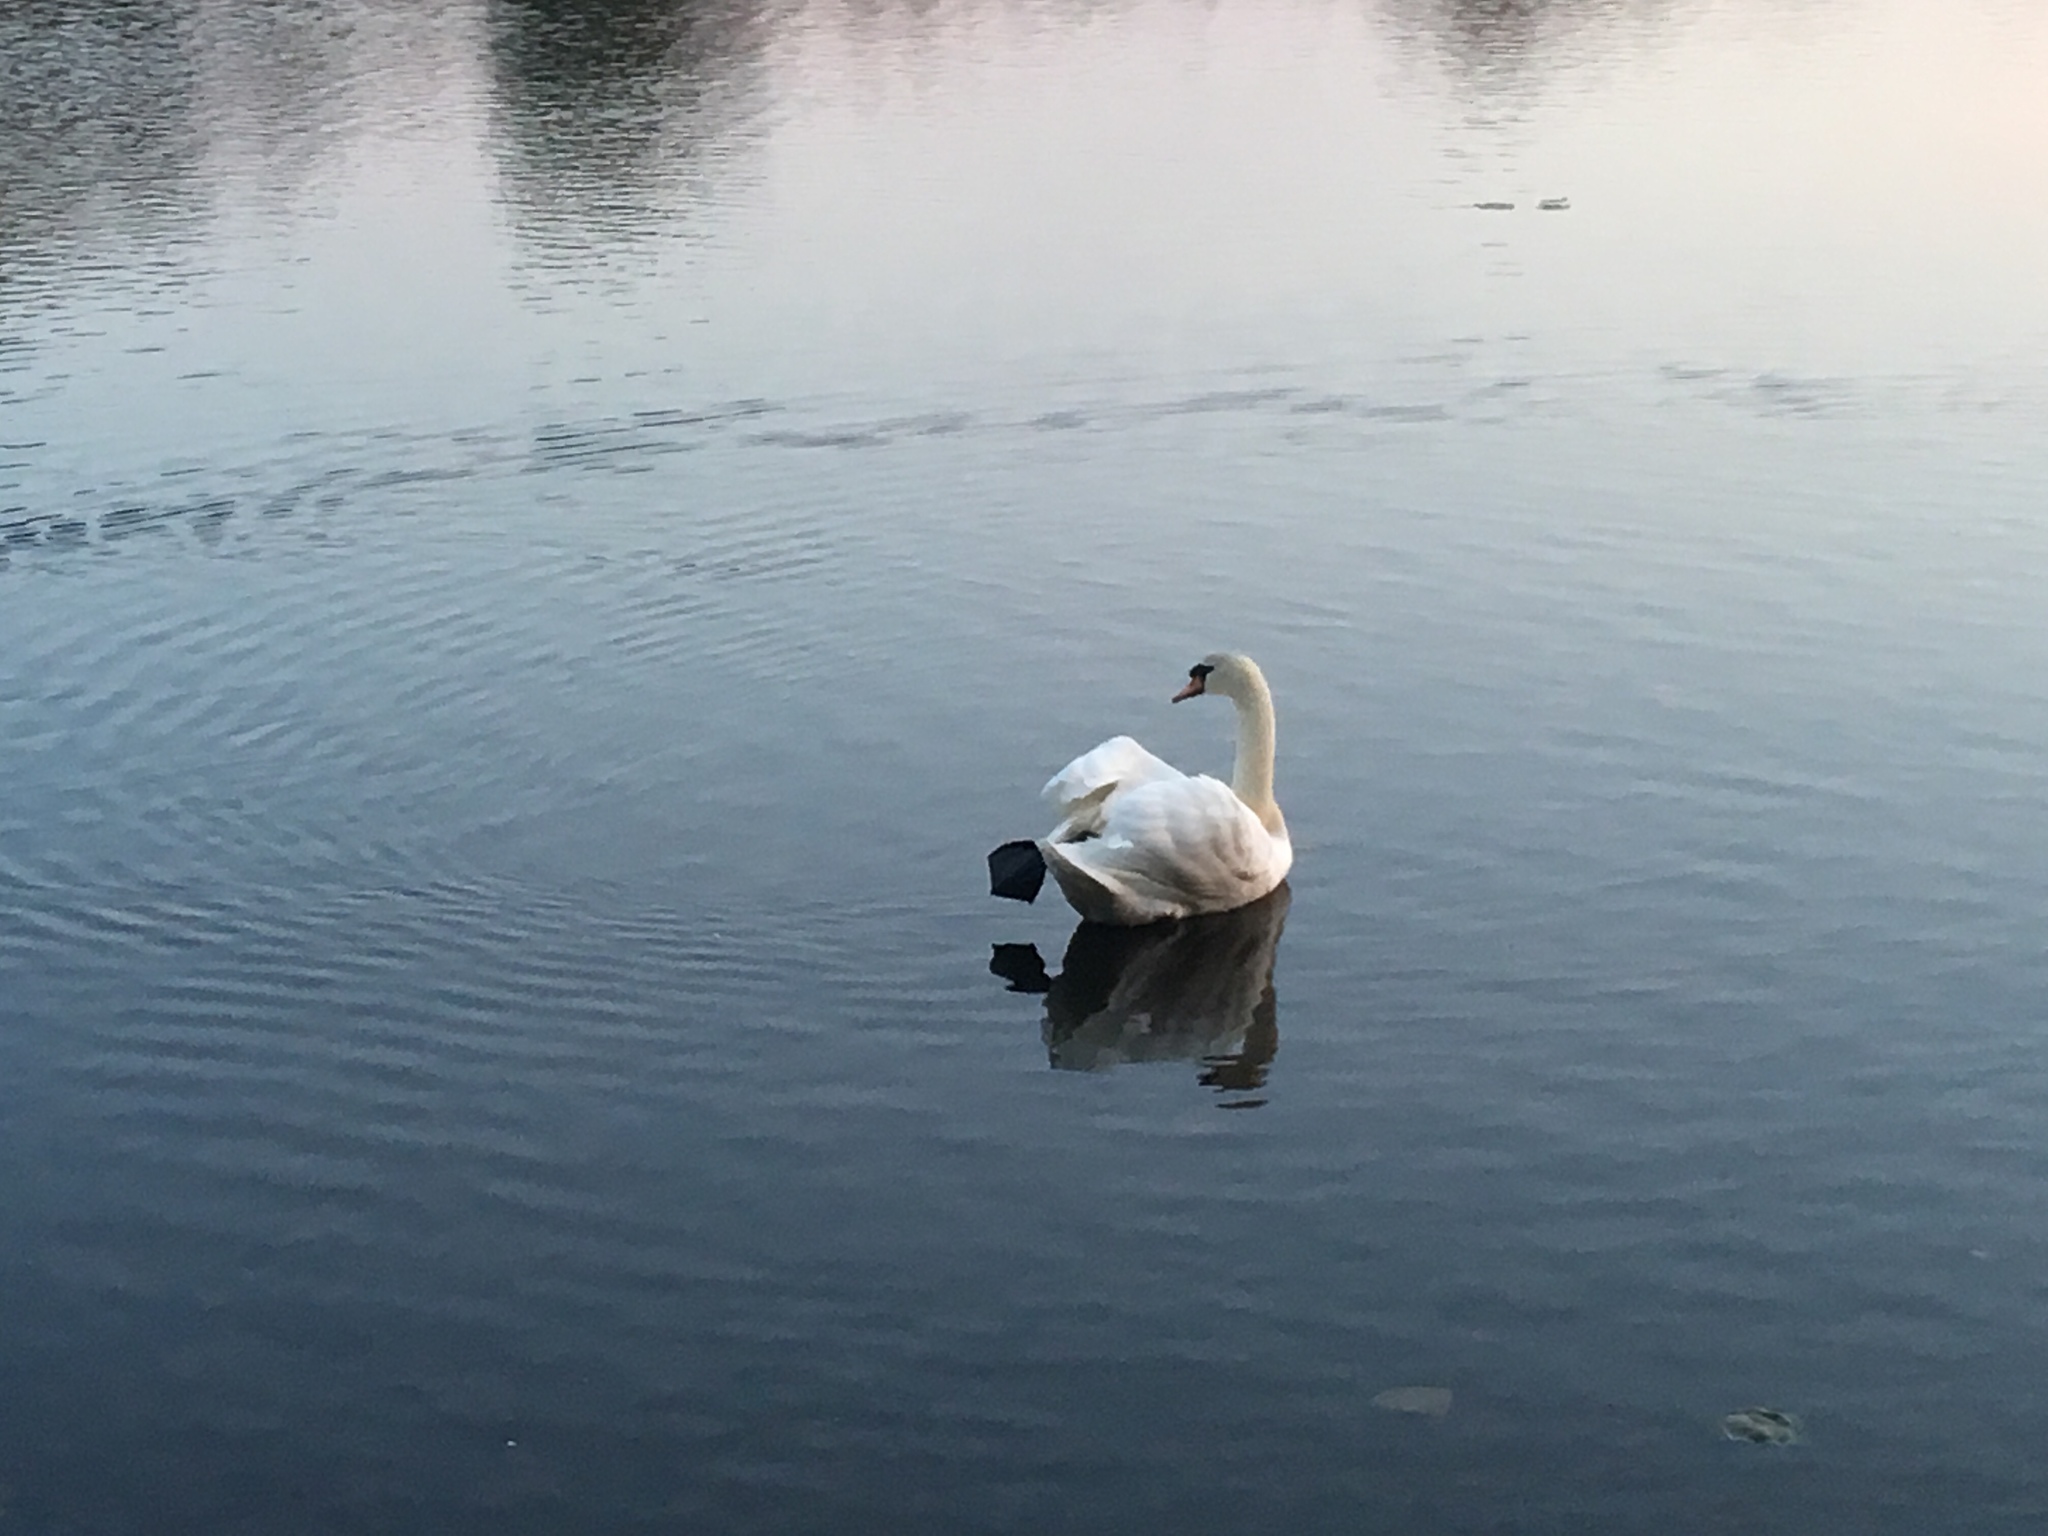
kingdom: Animalia
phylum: Chordata
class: Aves
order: Anseriformes
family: Anatidae
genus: Cygnus
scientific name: Cygnus olor
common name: Mute swan
